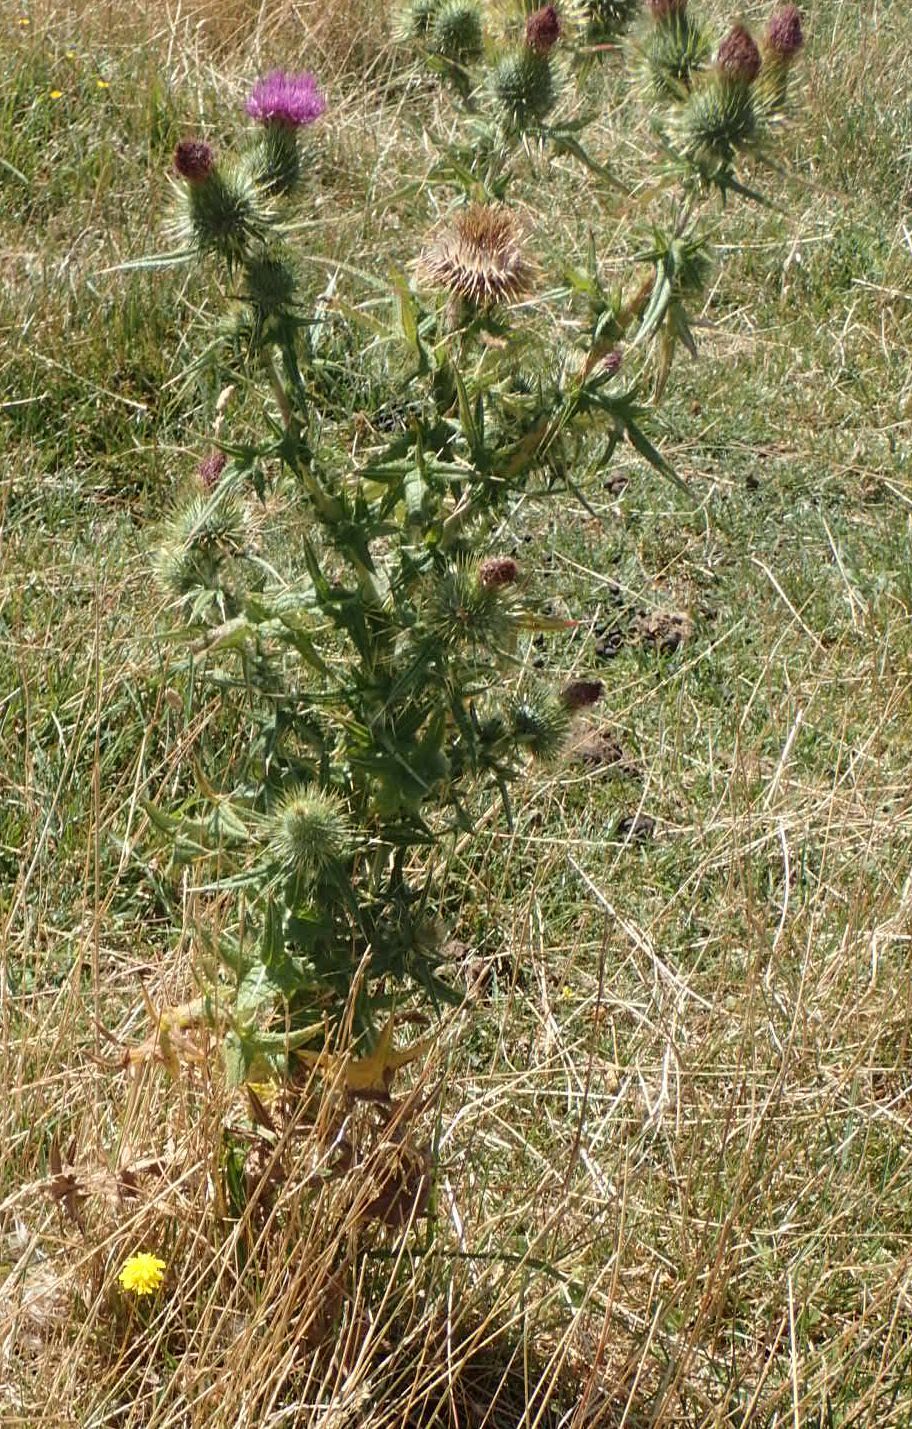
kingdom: Plantae
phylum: Tracheophyta
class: Magnoliopsida
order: Asterales
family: Asteraceae
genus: Cirsium
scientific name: Cirsium vulgare
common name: Bull thistle
